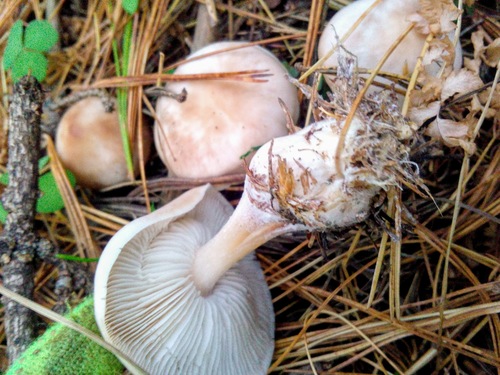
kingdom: Fungi
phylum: Basidiomycota
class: Agaricomycetes
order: Agaricales
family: Omphalotaceae
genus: Rhodocollybia
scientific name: Rhodocollybia butyracea
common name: Butter cap
